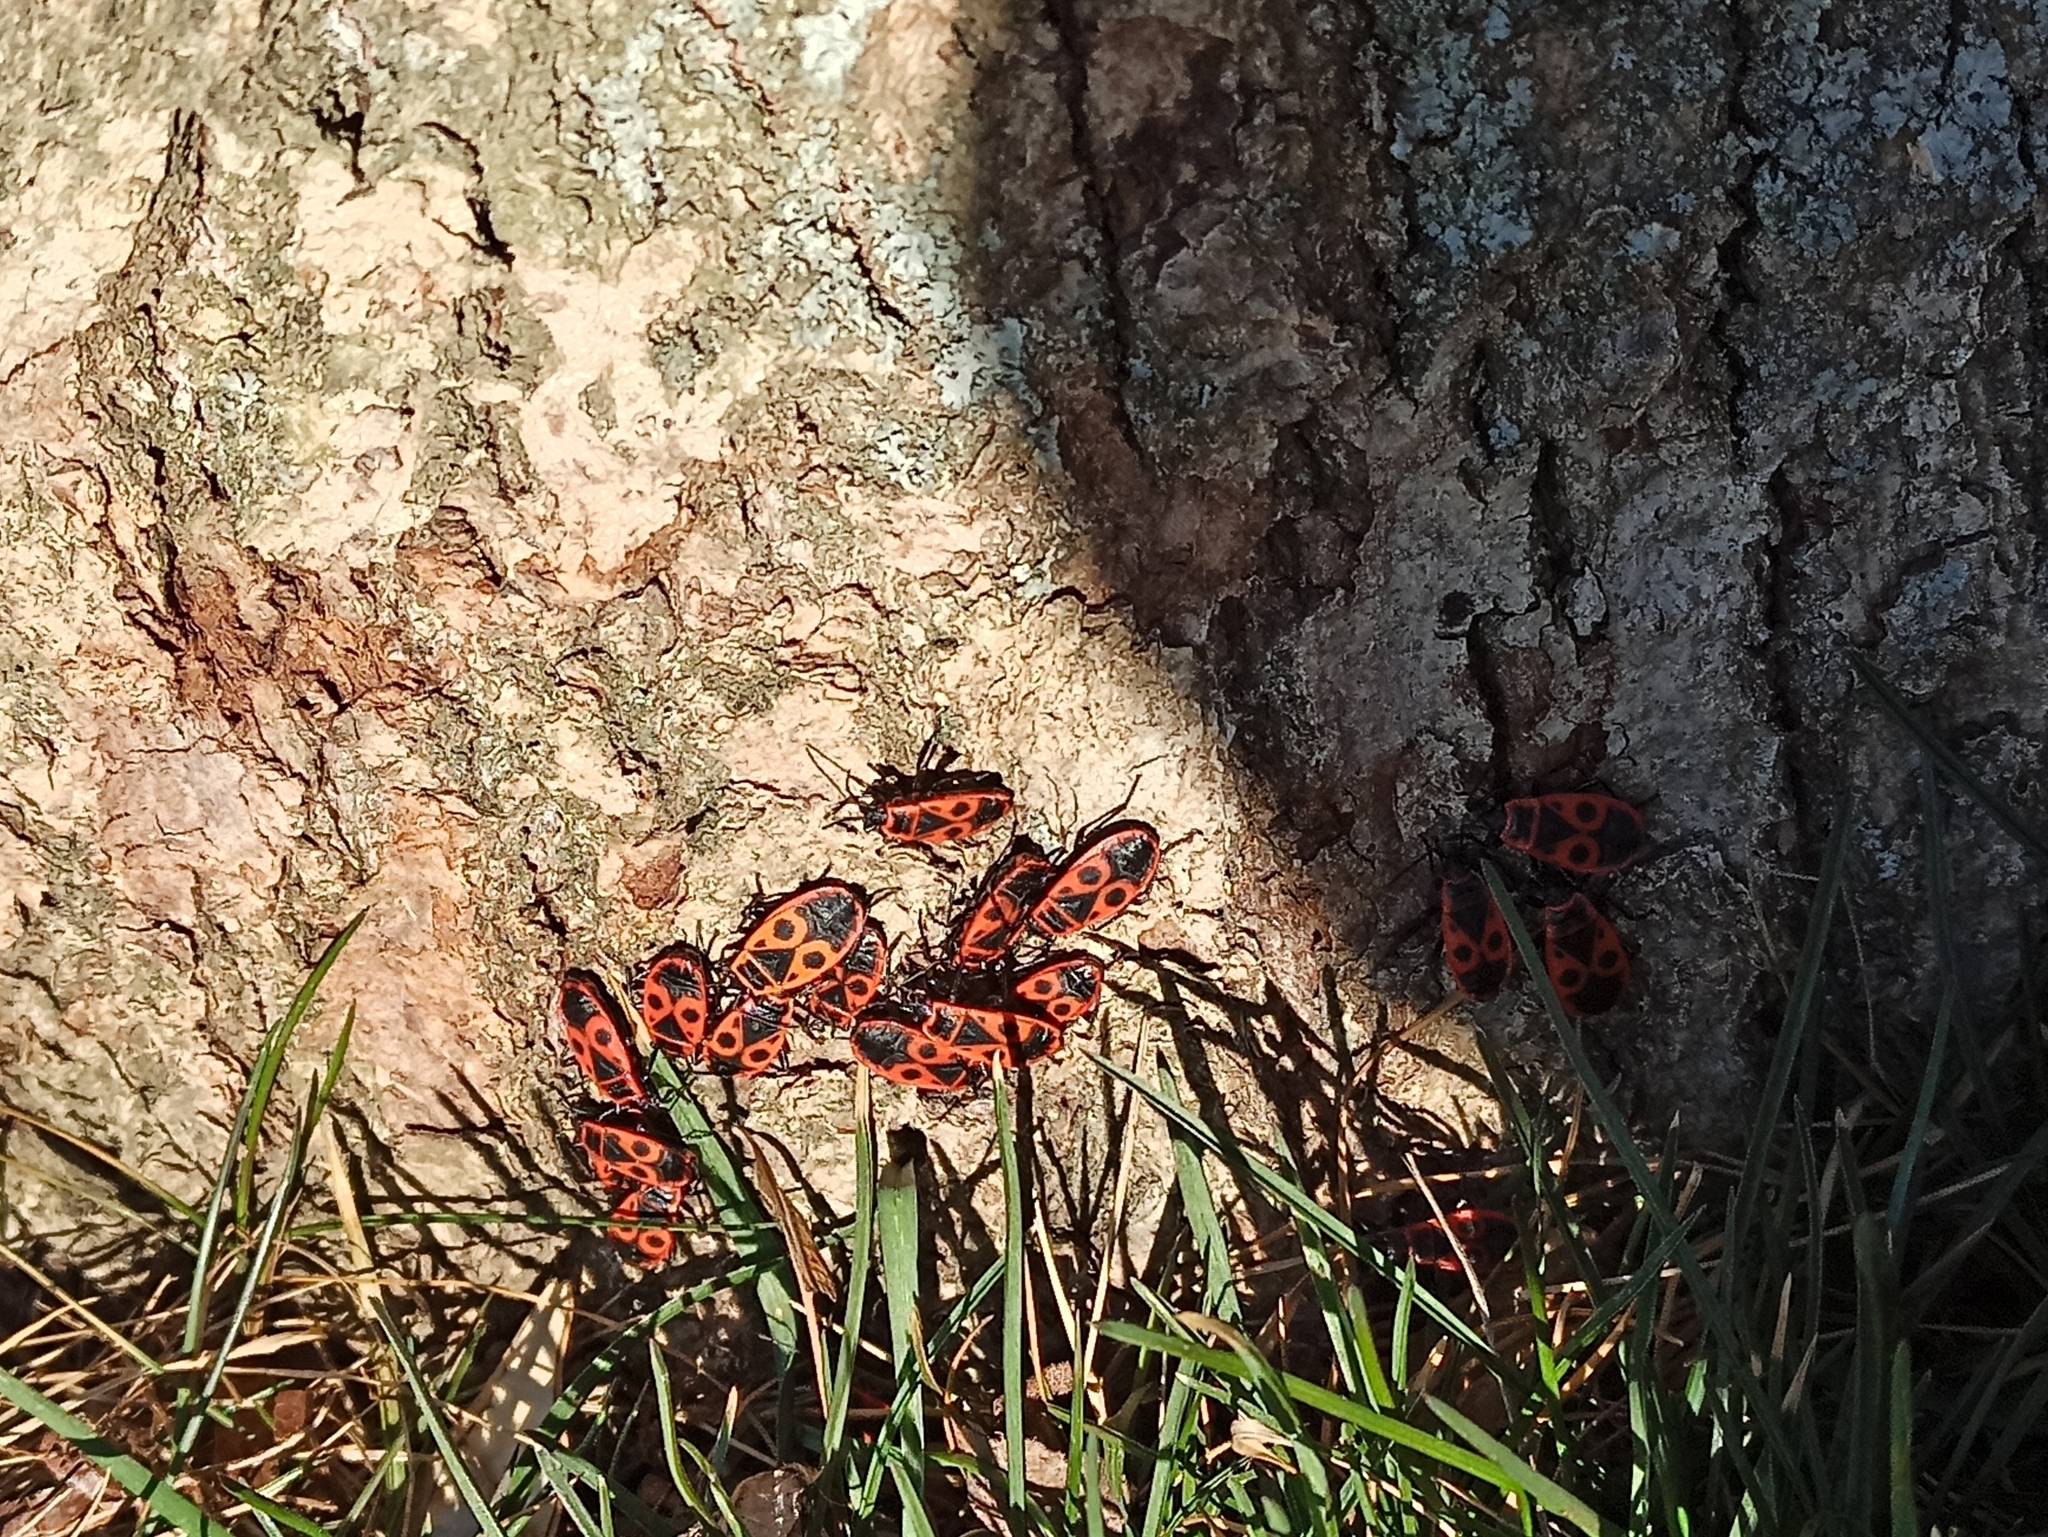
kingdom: Animalia
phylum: Arthropoda
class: Insecta
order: Hemiptera
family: Pyrrhocoridae
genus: Pyrrhocoris
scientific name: Pyrrhocoris apterus
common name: Firebug
